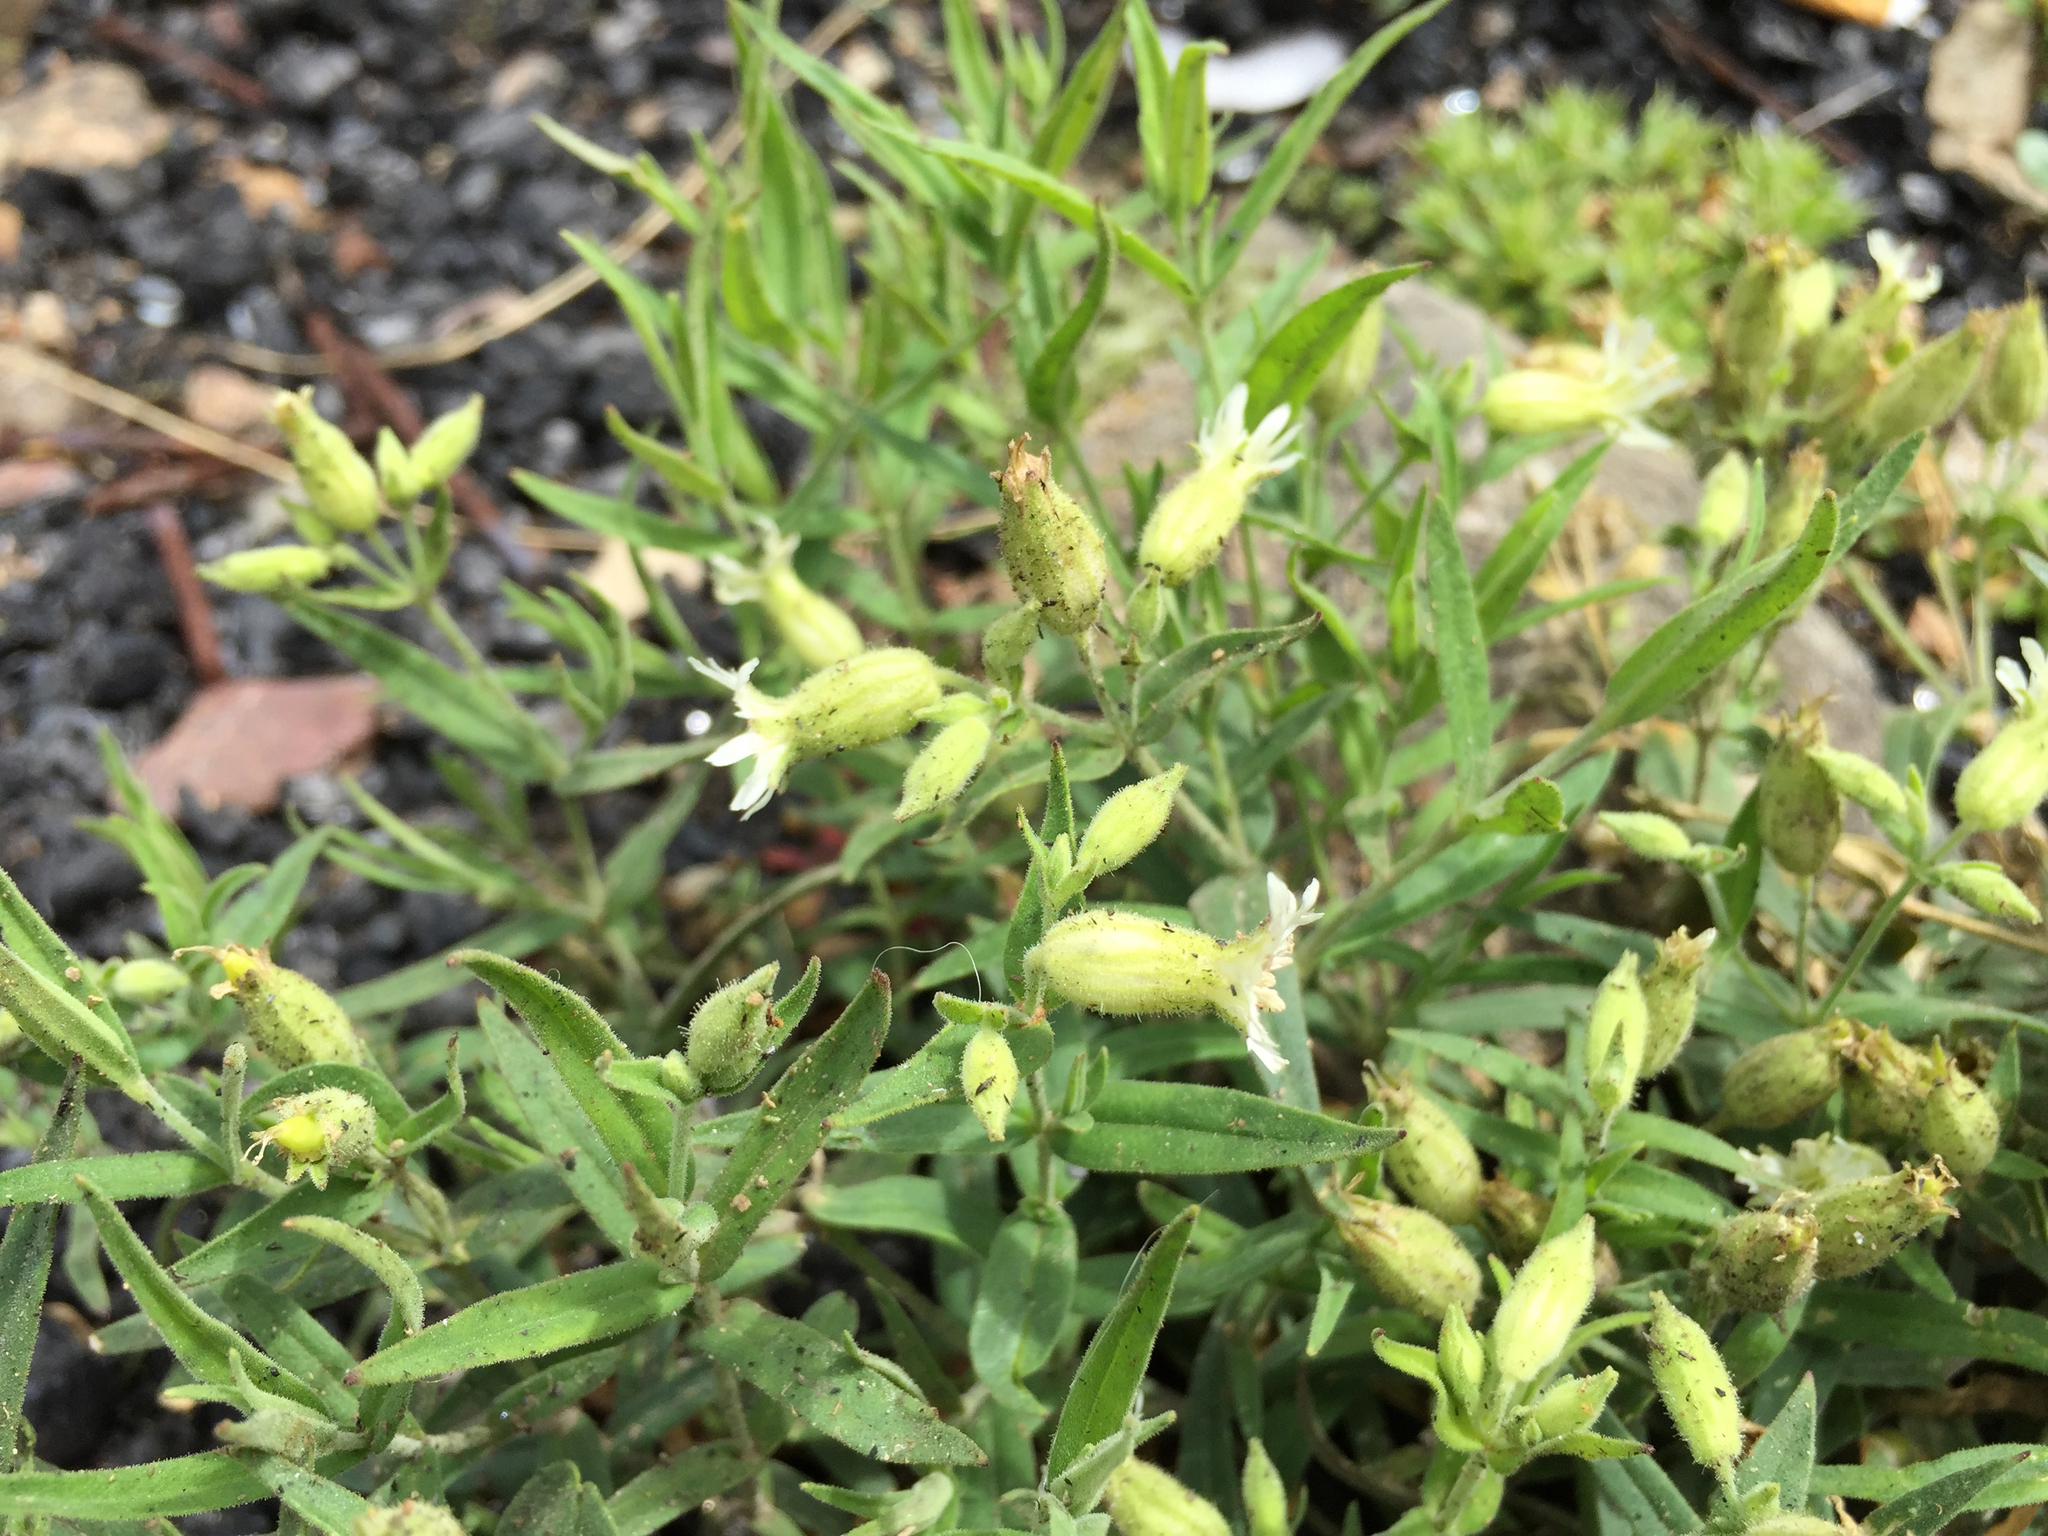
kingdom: Plantae
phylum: Tracheophyta
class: Magnoliopsida
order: Caryophyllales
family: Caryophyllaceae
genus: Silene
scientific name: Silene williamsii
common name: Williams' campion
